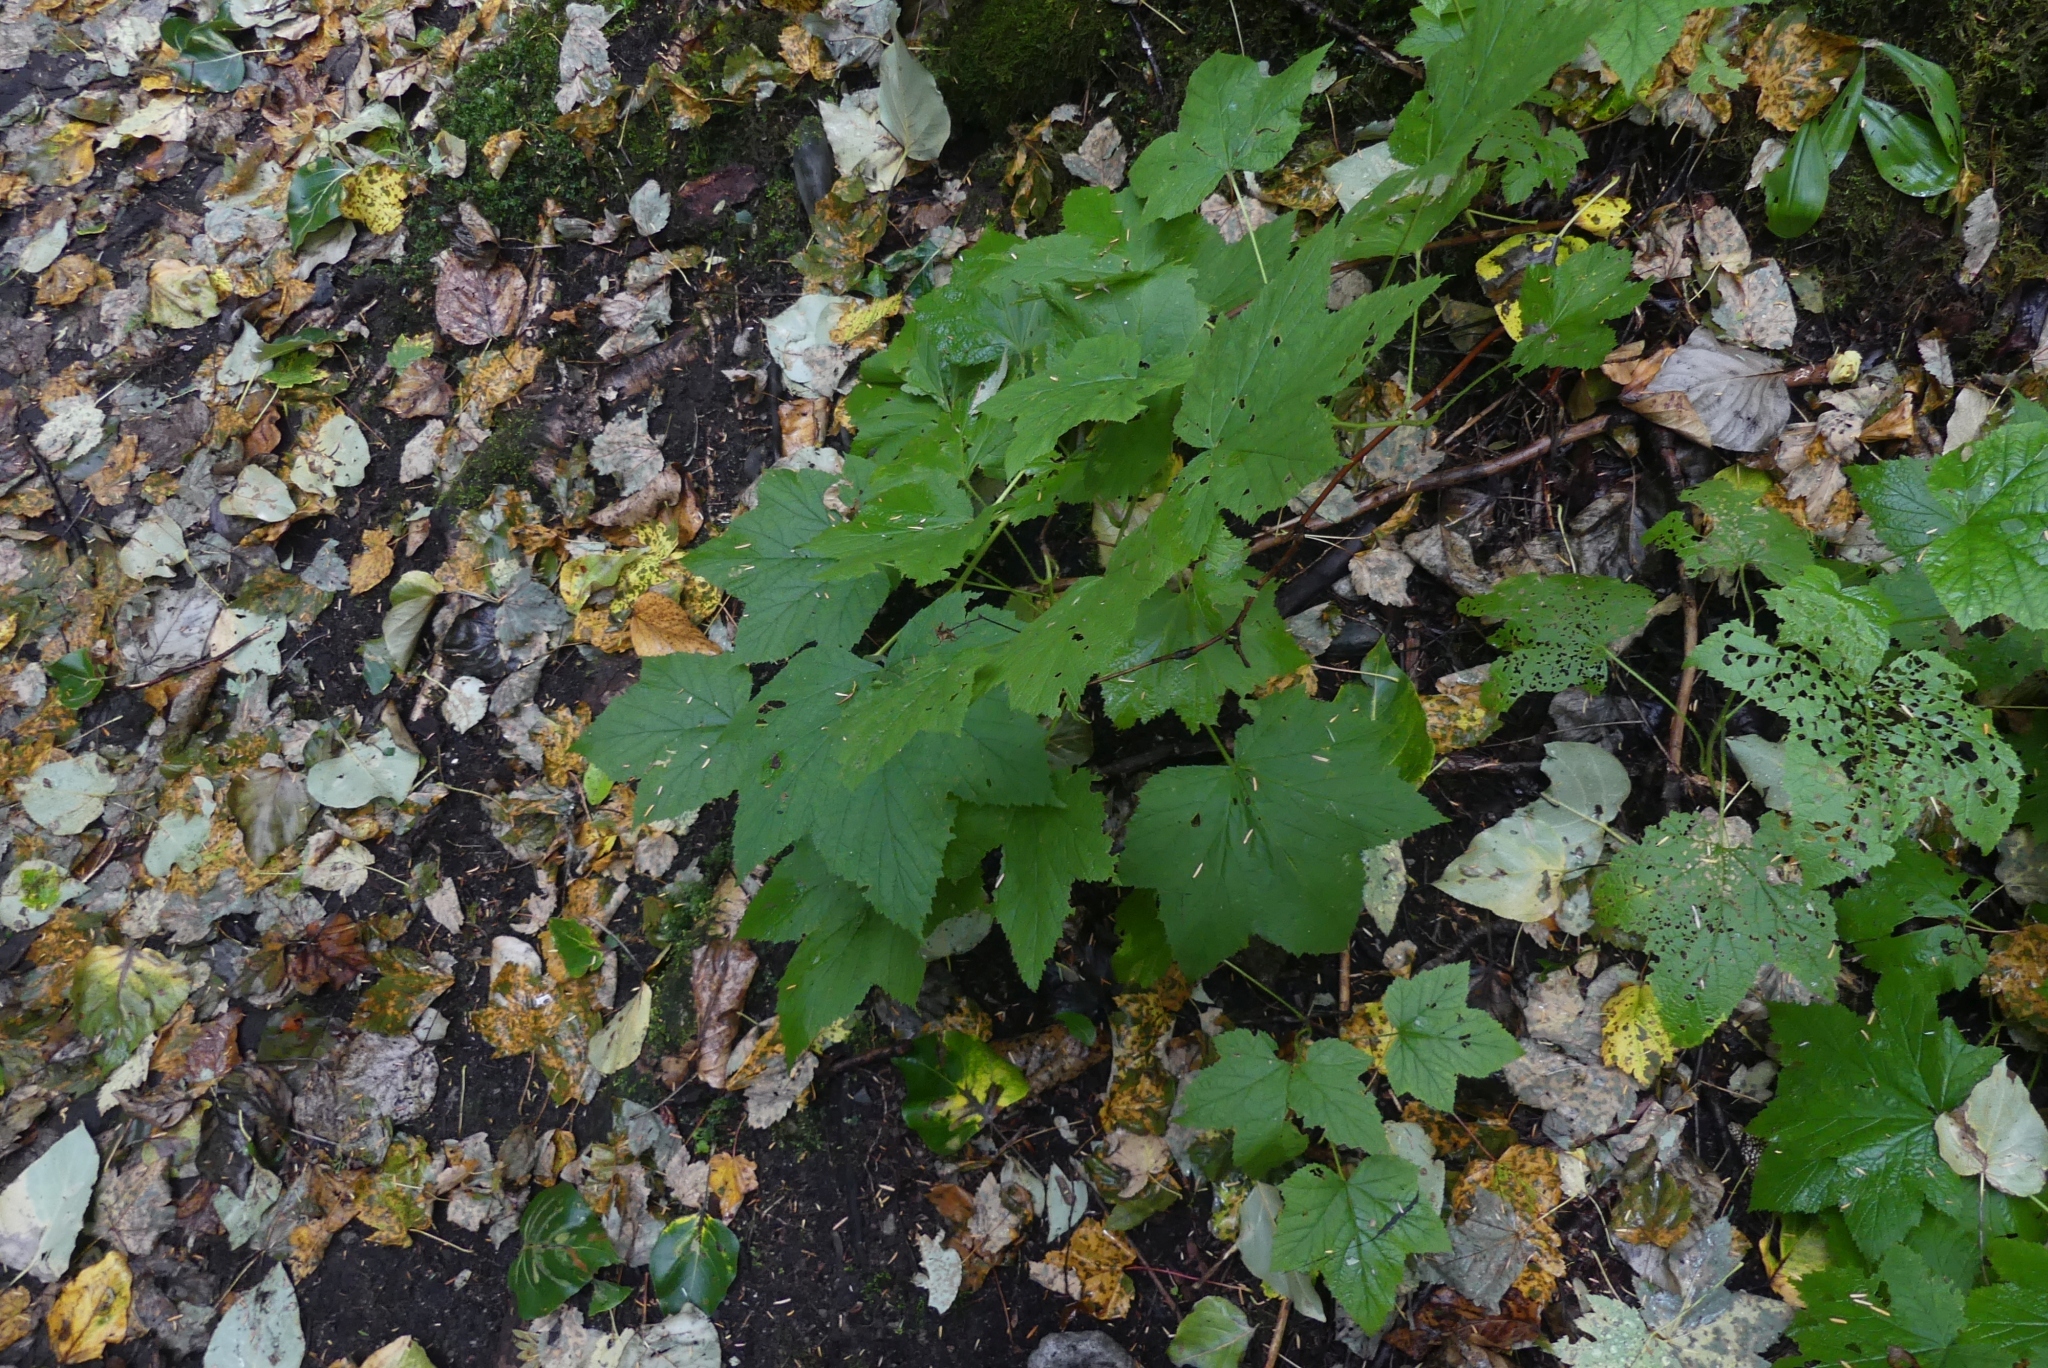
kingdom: Plantae
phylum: Tracheophyta
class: Magnoliopsida
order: Rosales
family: Rosaceae
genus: Rubus
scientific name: Rubus parviflorus
